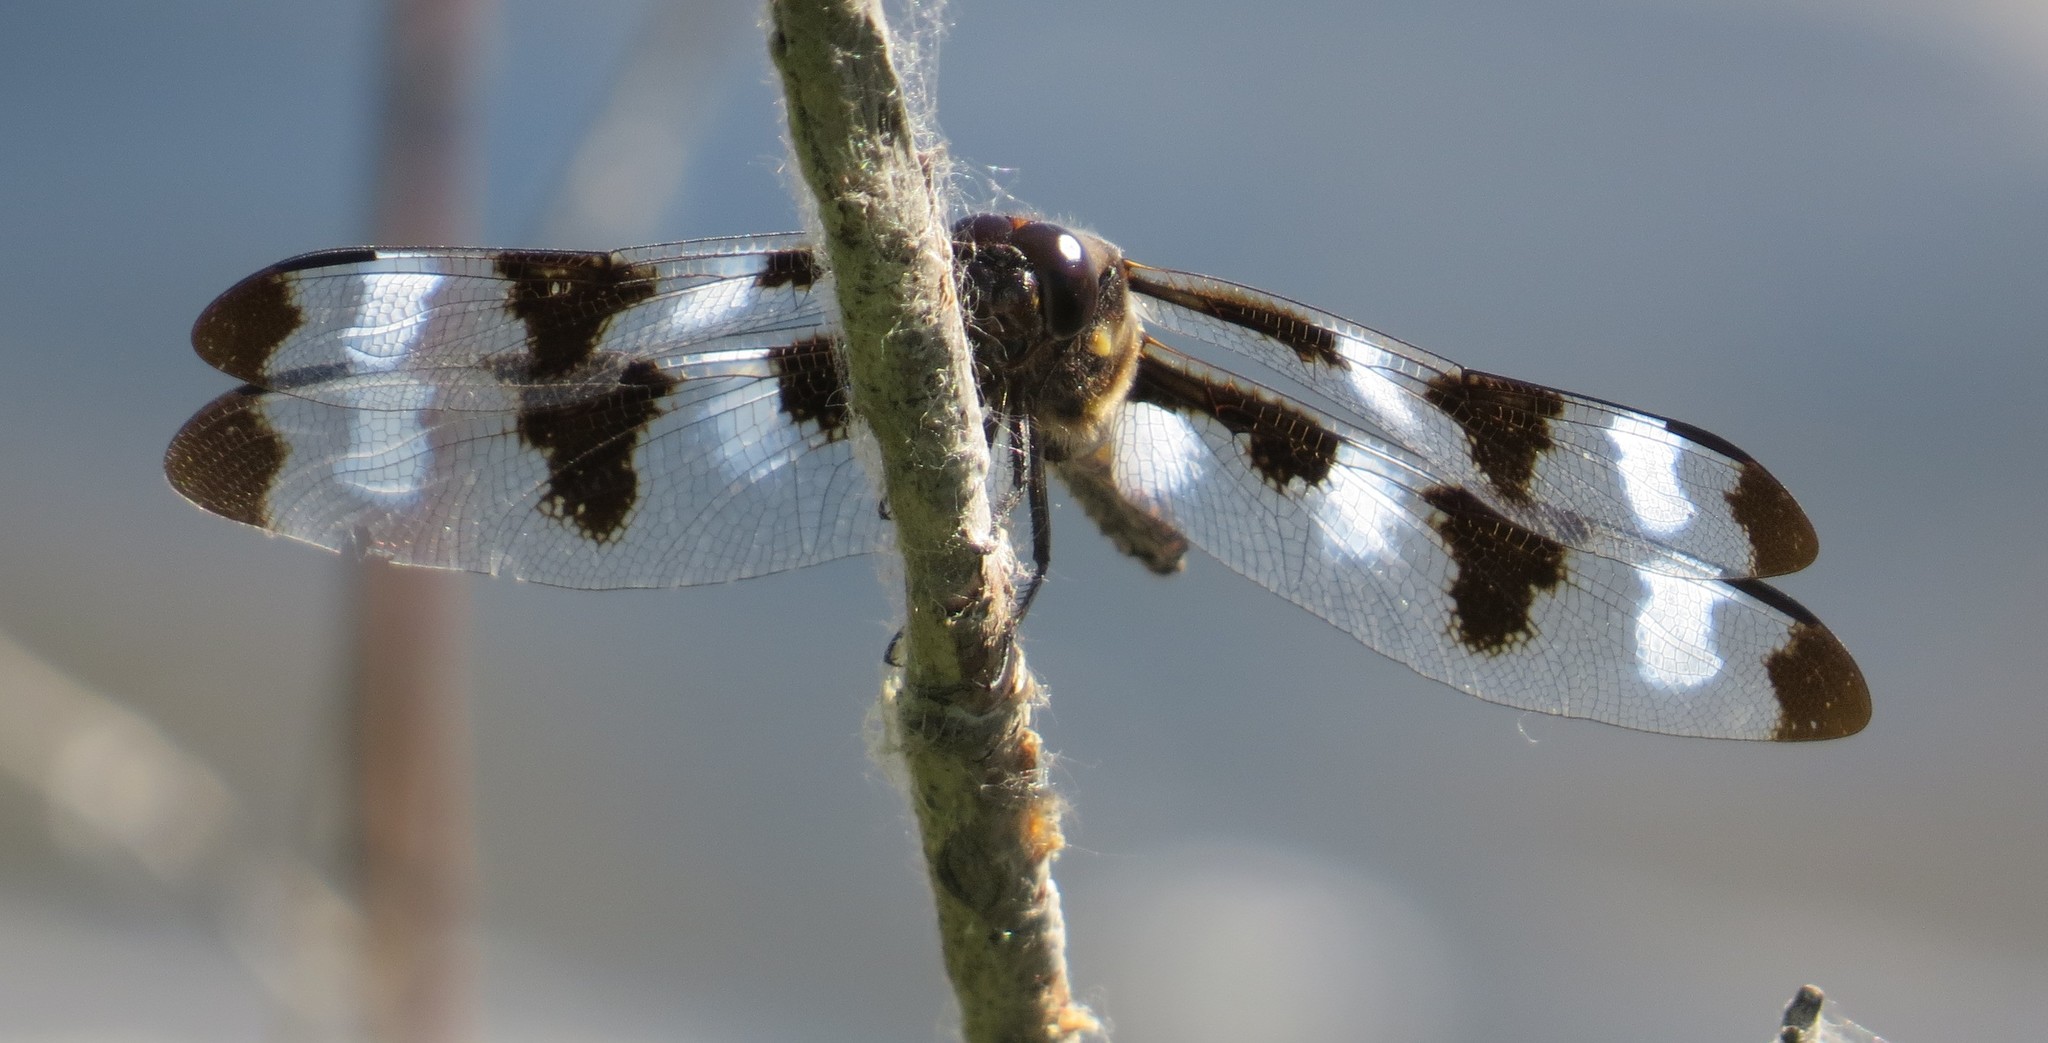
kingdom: Animalia
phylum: Arthropoda
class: Insecta
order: Odonata
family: Libellulidae
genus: Libellula
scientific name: Libellula pulchella
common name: Twelve-spotted skimmer
